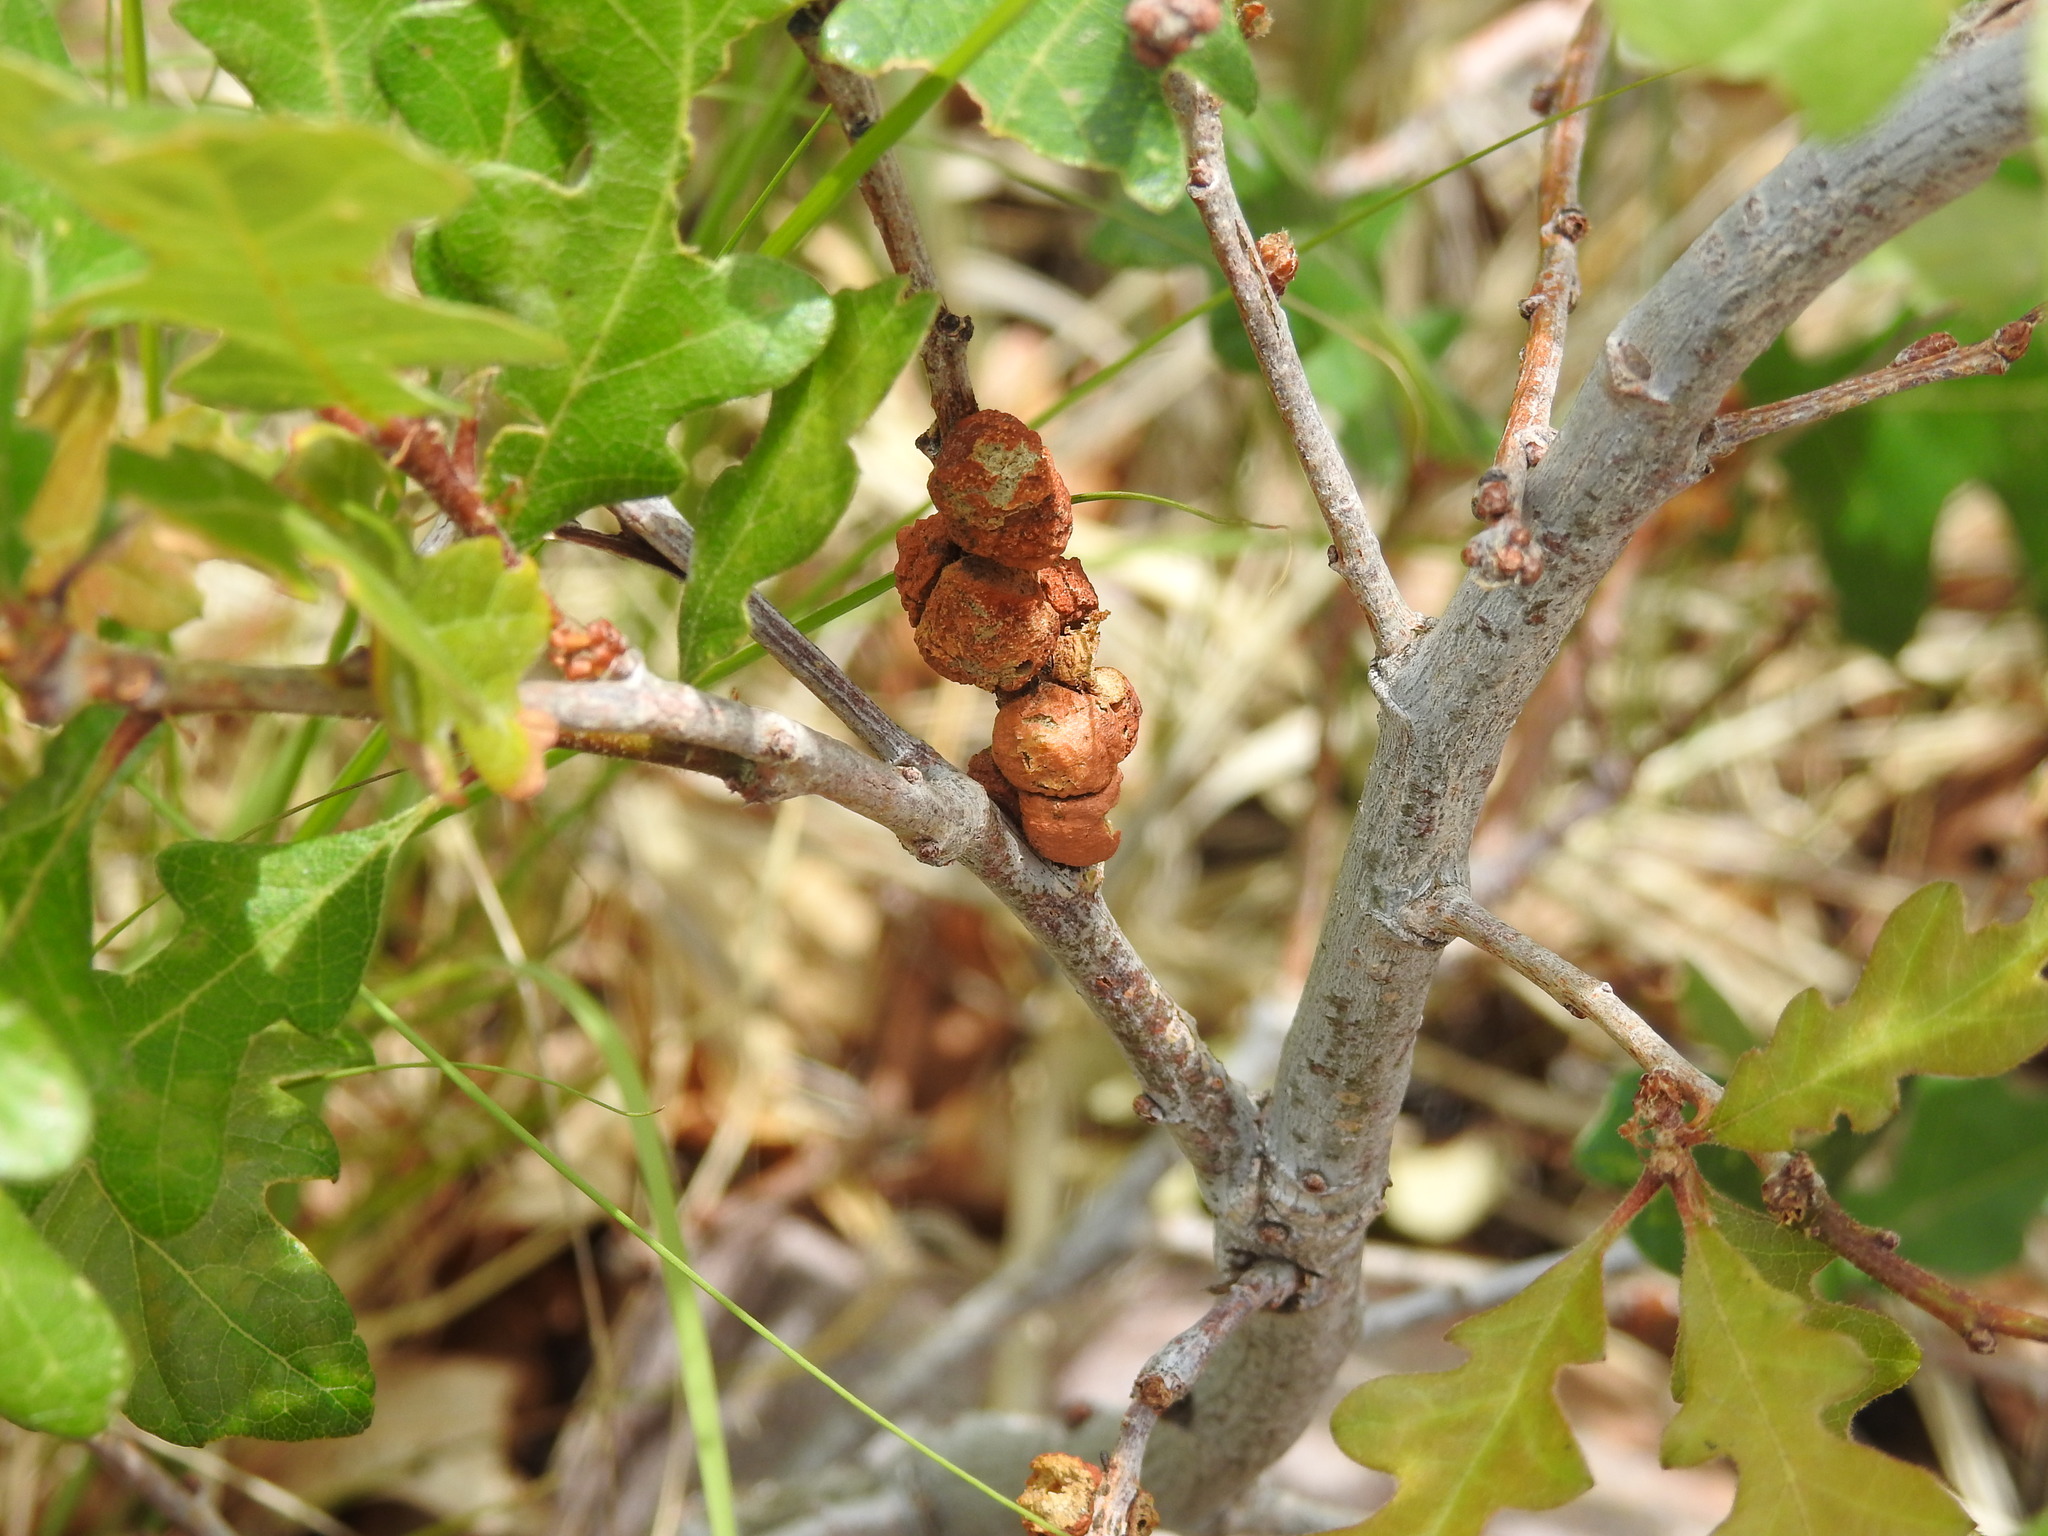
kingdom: Animalia
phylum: Arthropoda
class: Insecta
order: Hymenoptera
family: Cynipidae
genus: Disholcaspis
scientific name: Disholcaspis
